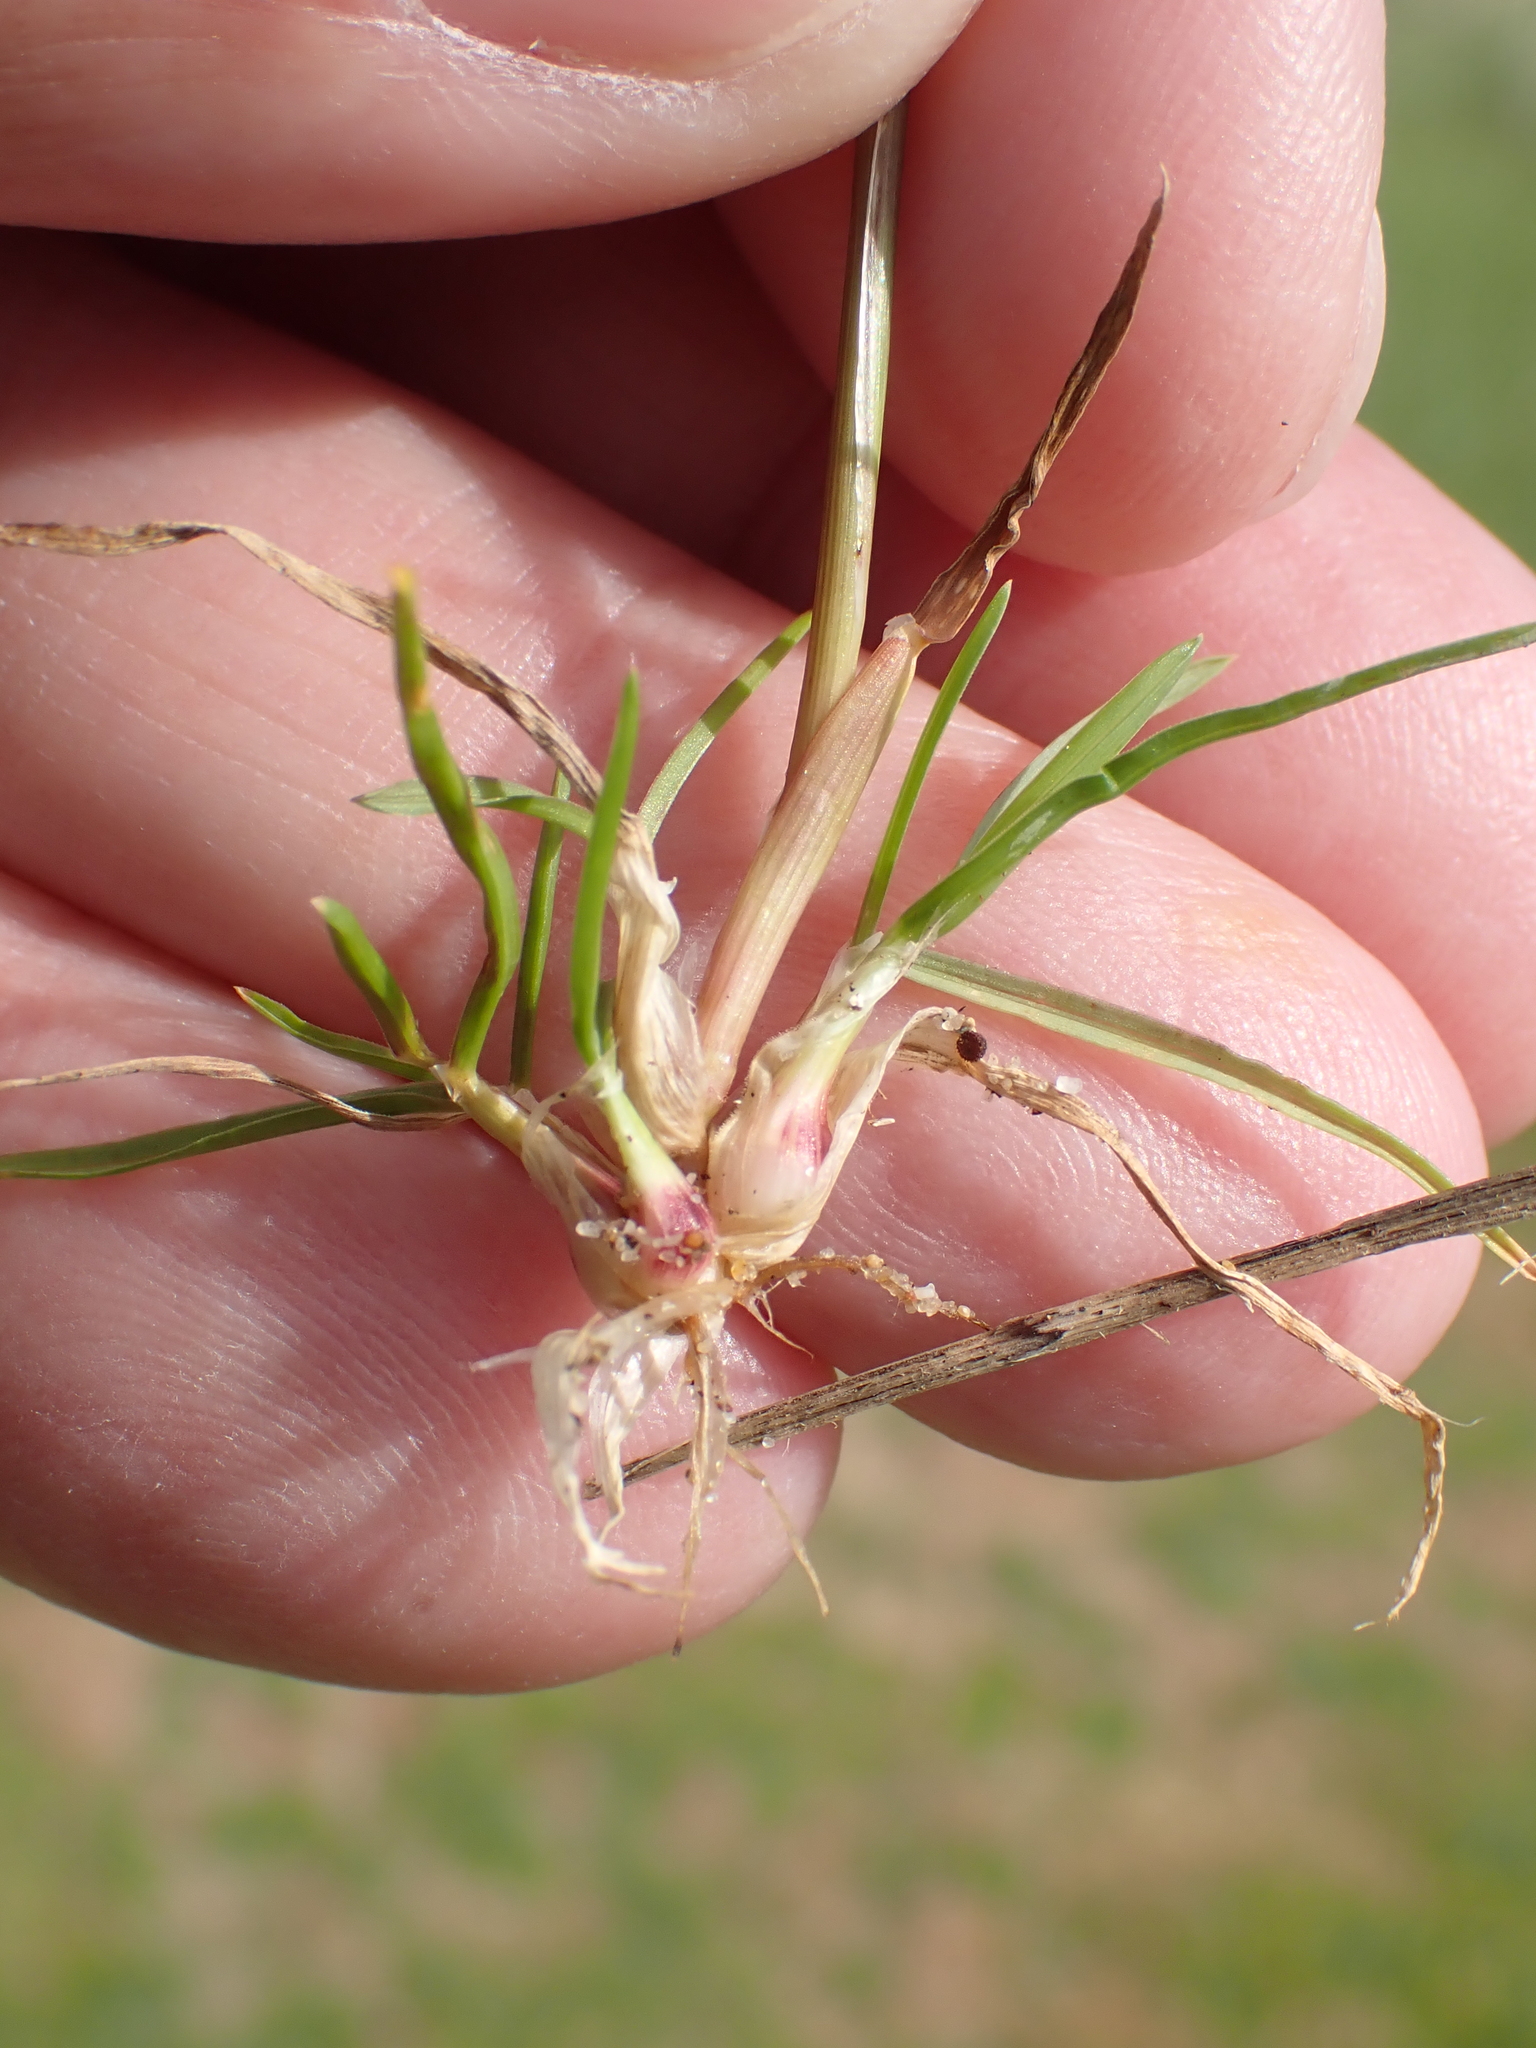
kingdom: Plantae
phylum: Tracheophyta
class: Liliopsida
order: Poales
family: Poaceae
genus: Poa
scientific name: Poa bulbosa
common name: Bulbous bluegrass
